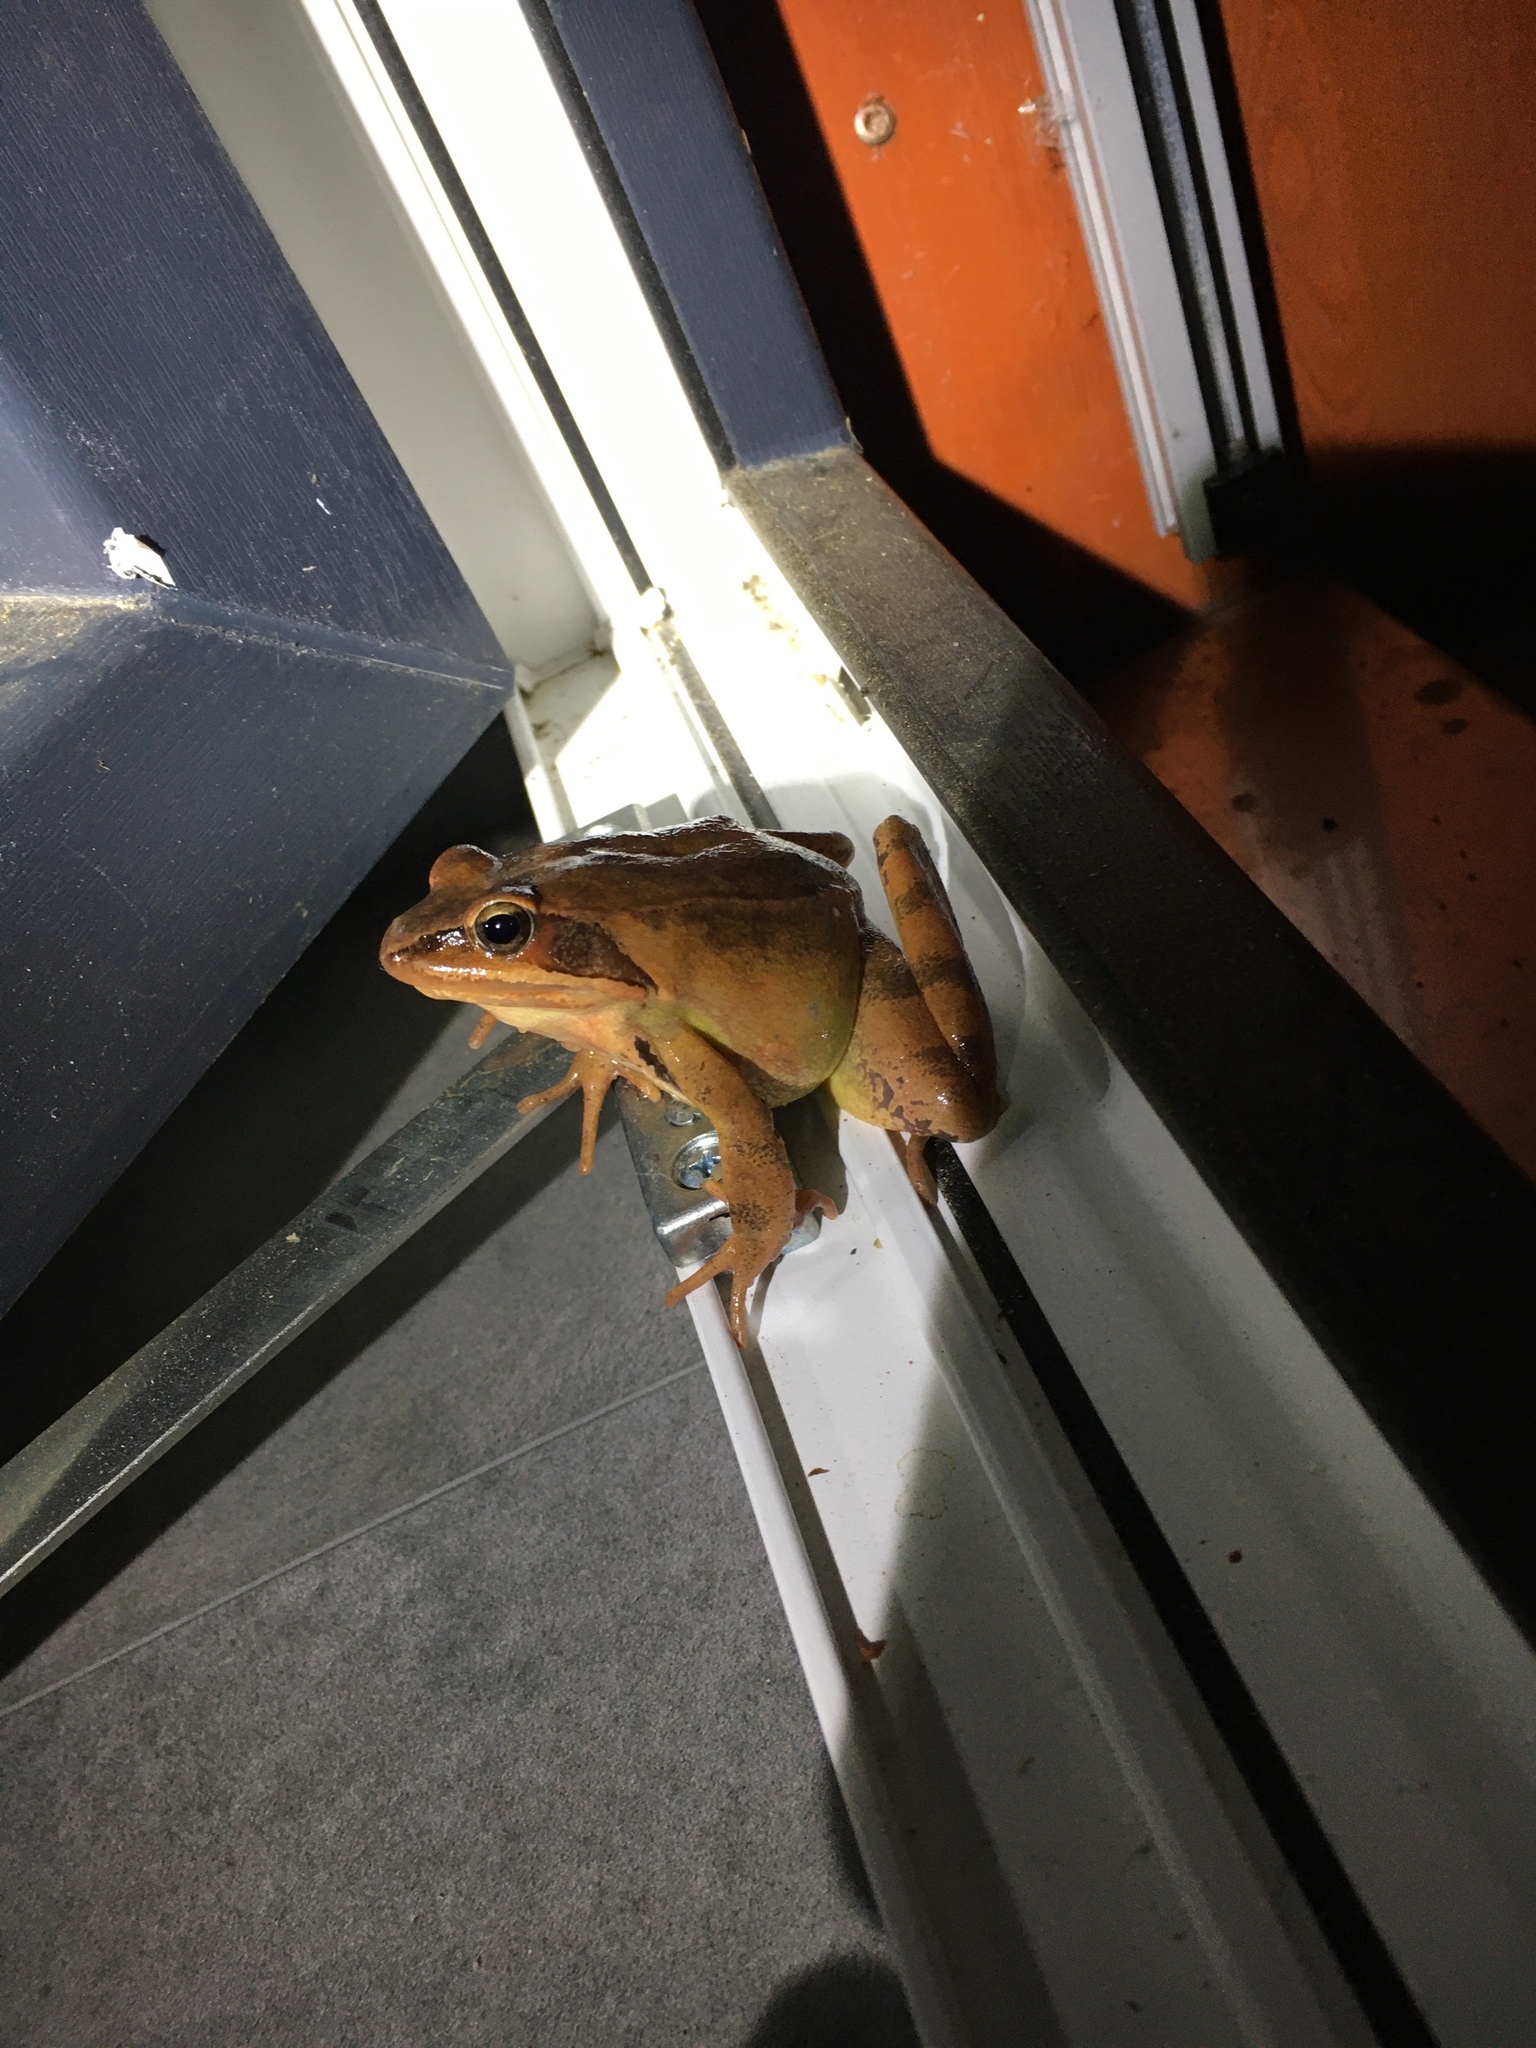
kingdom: Animalia
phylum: Chordata
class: Amphibia
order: Anura
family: Ranidae
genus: Rana
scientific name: Rana dalmatina
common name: Agile frog
